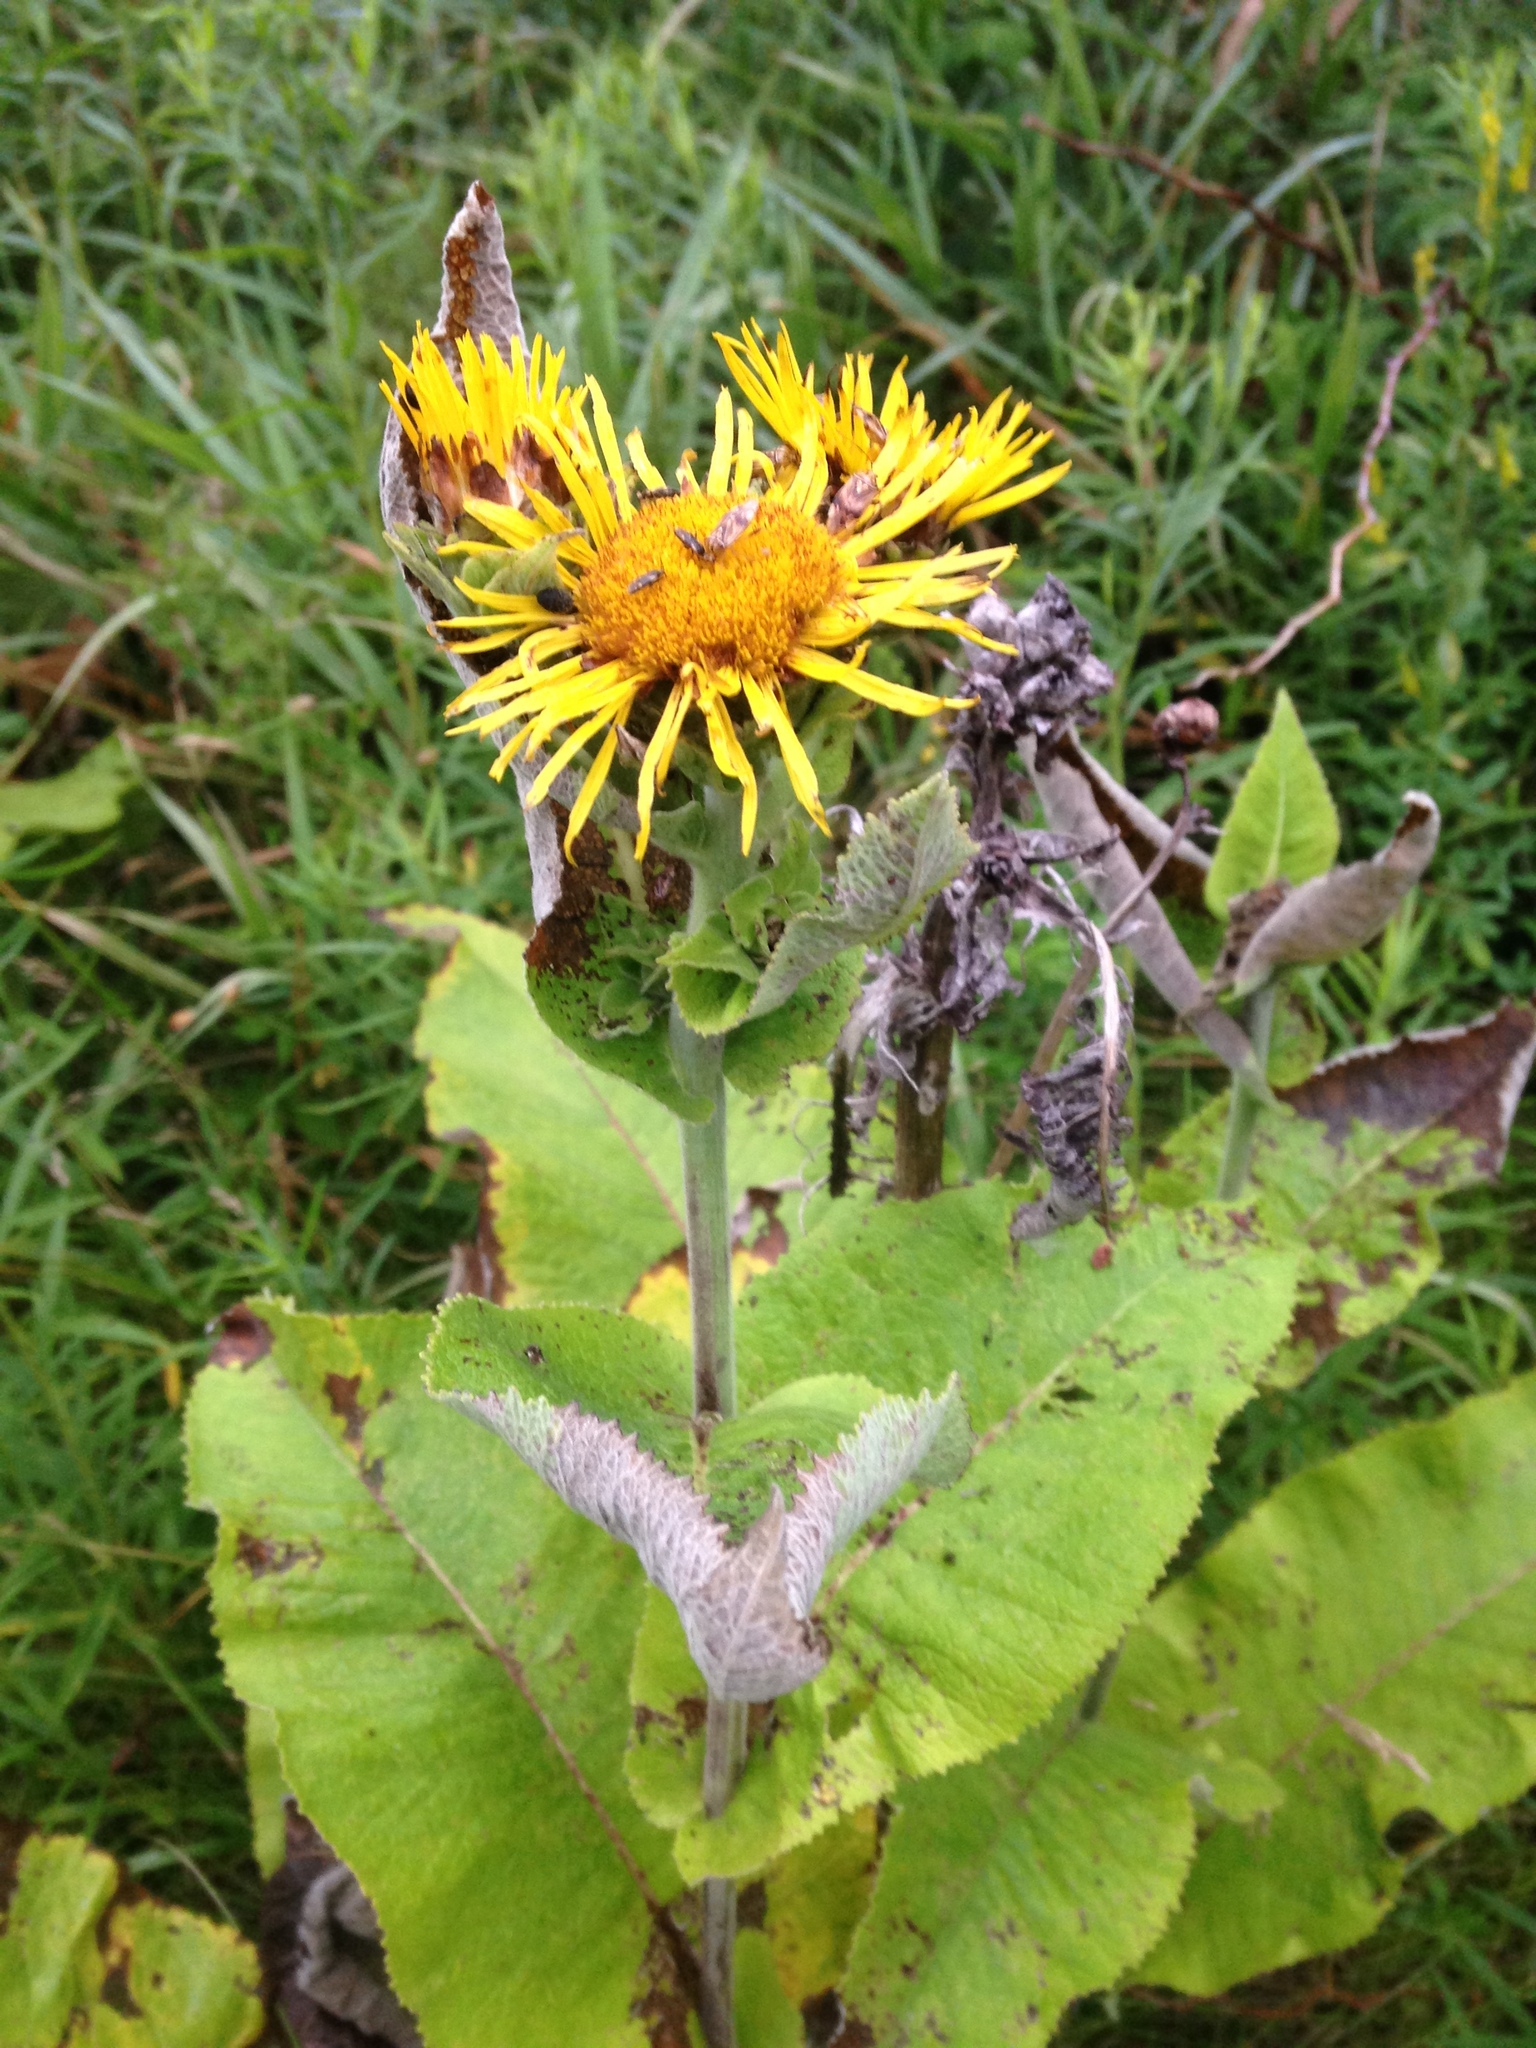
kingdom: Plantae
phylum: Tracheophyta
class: Magnoliopsida
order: Asterales
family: Asteraceae
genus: Inula
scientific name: Inula helenium
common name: Elecampane
